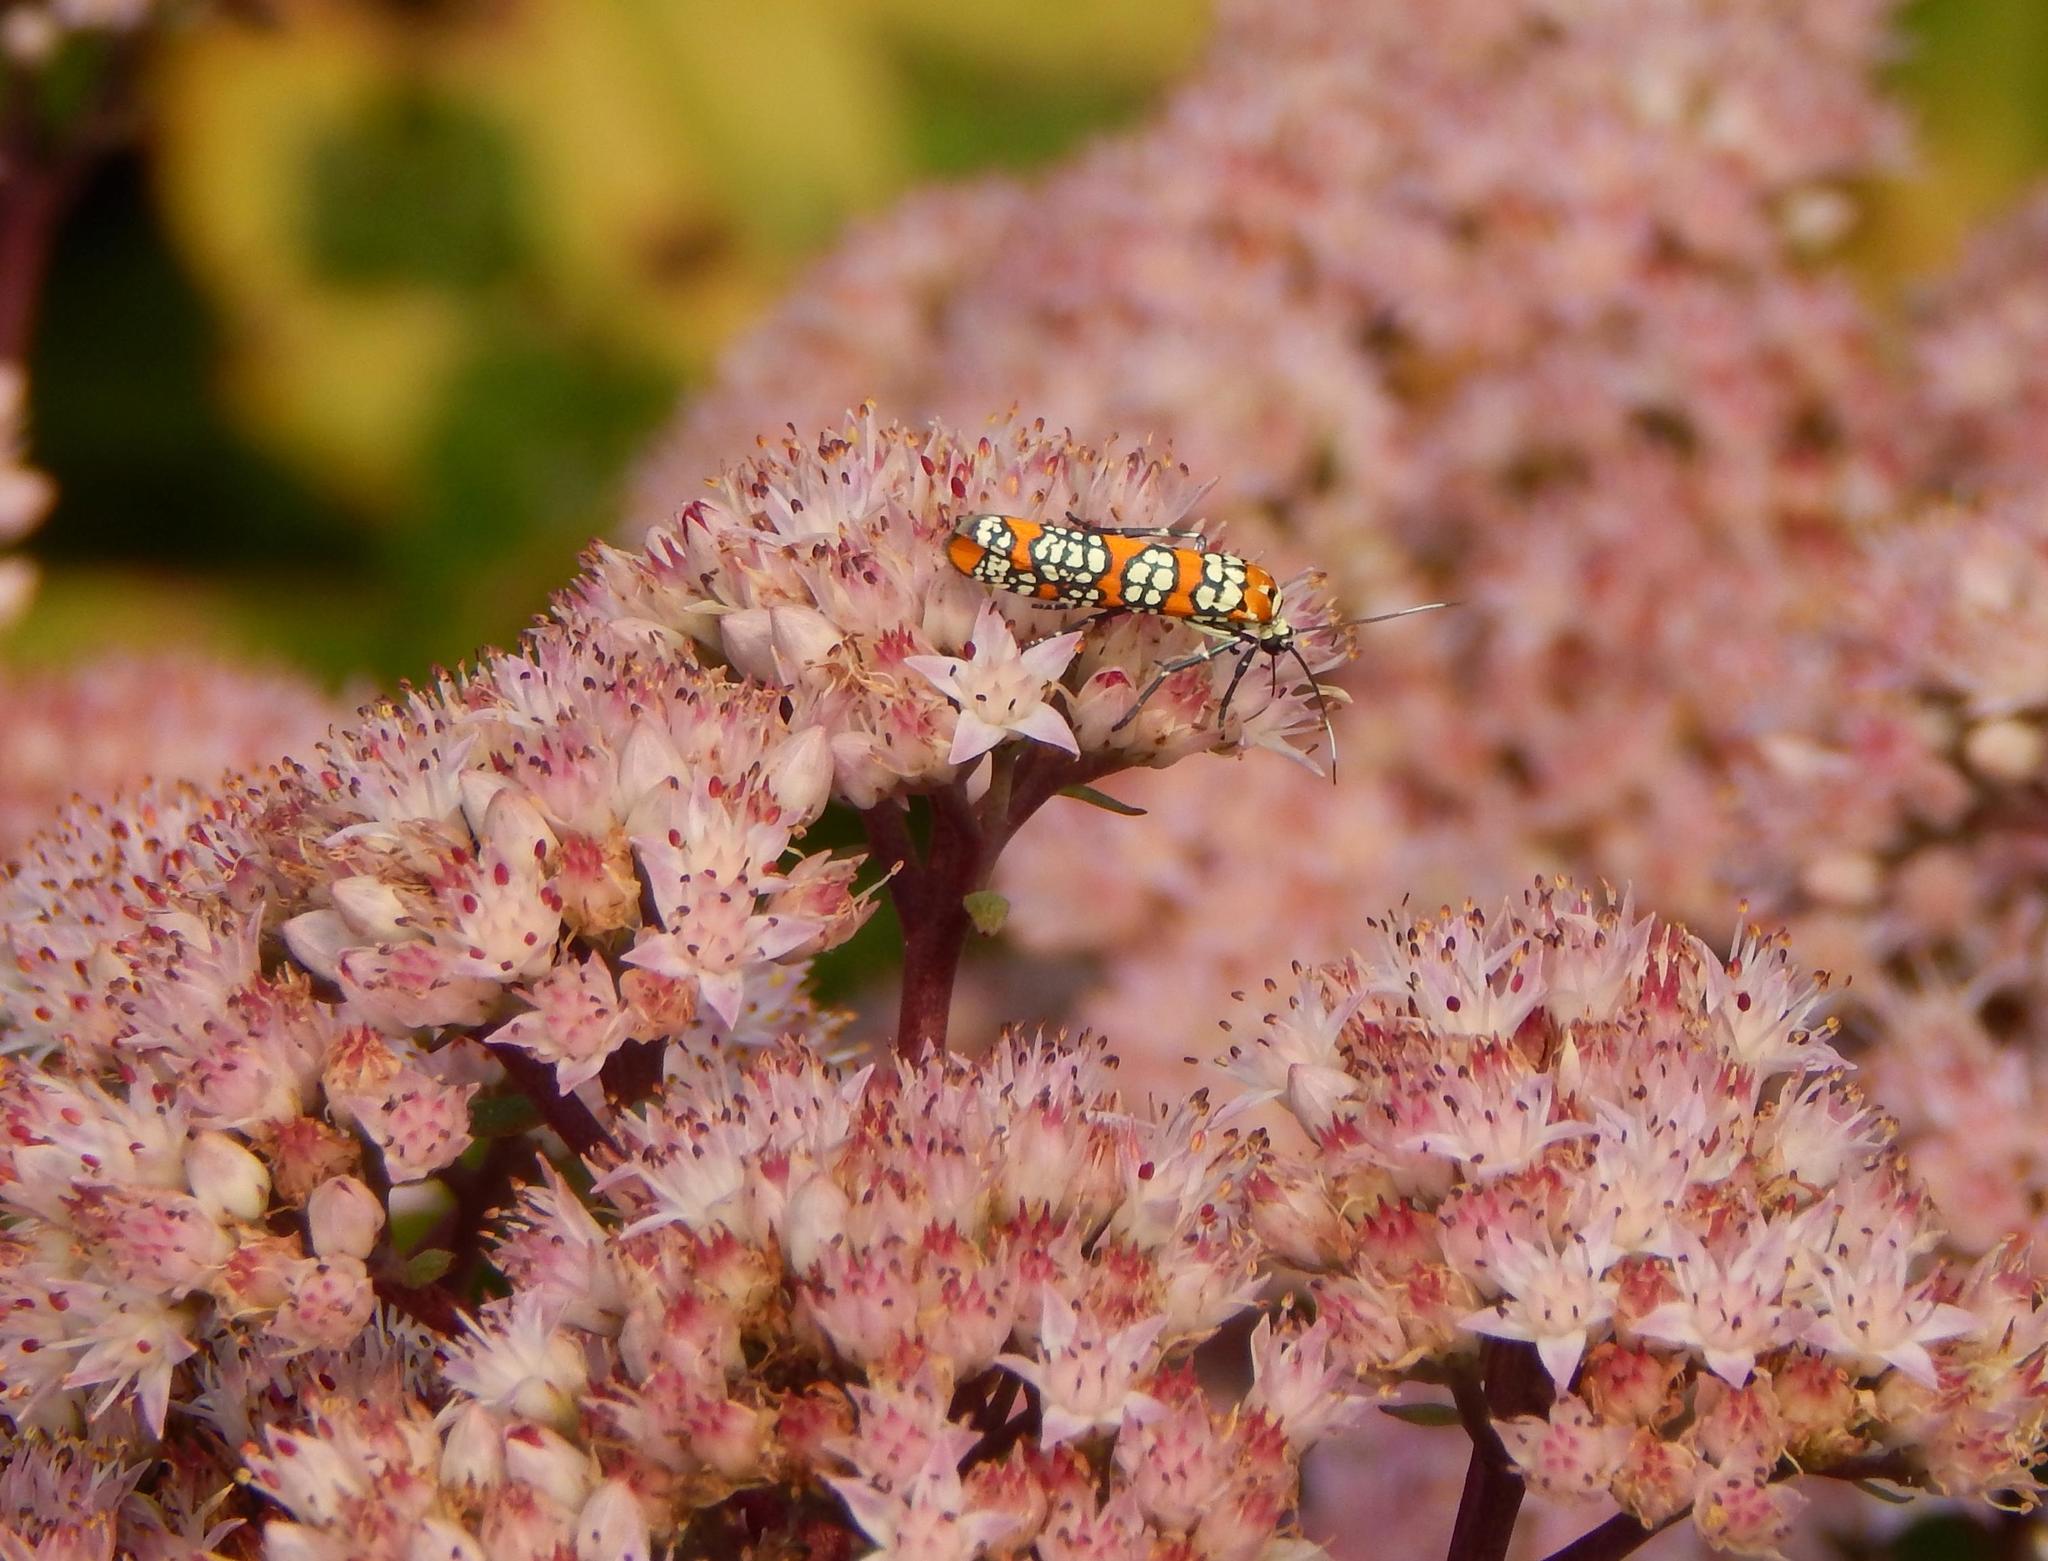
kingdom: Animalia
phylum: Arthropoda
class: Insecta
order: Lepidoptera
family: Attevidae
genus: Atteva
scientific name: Atteva punctella
